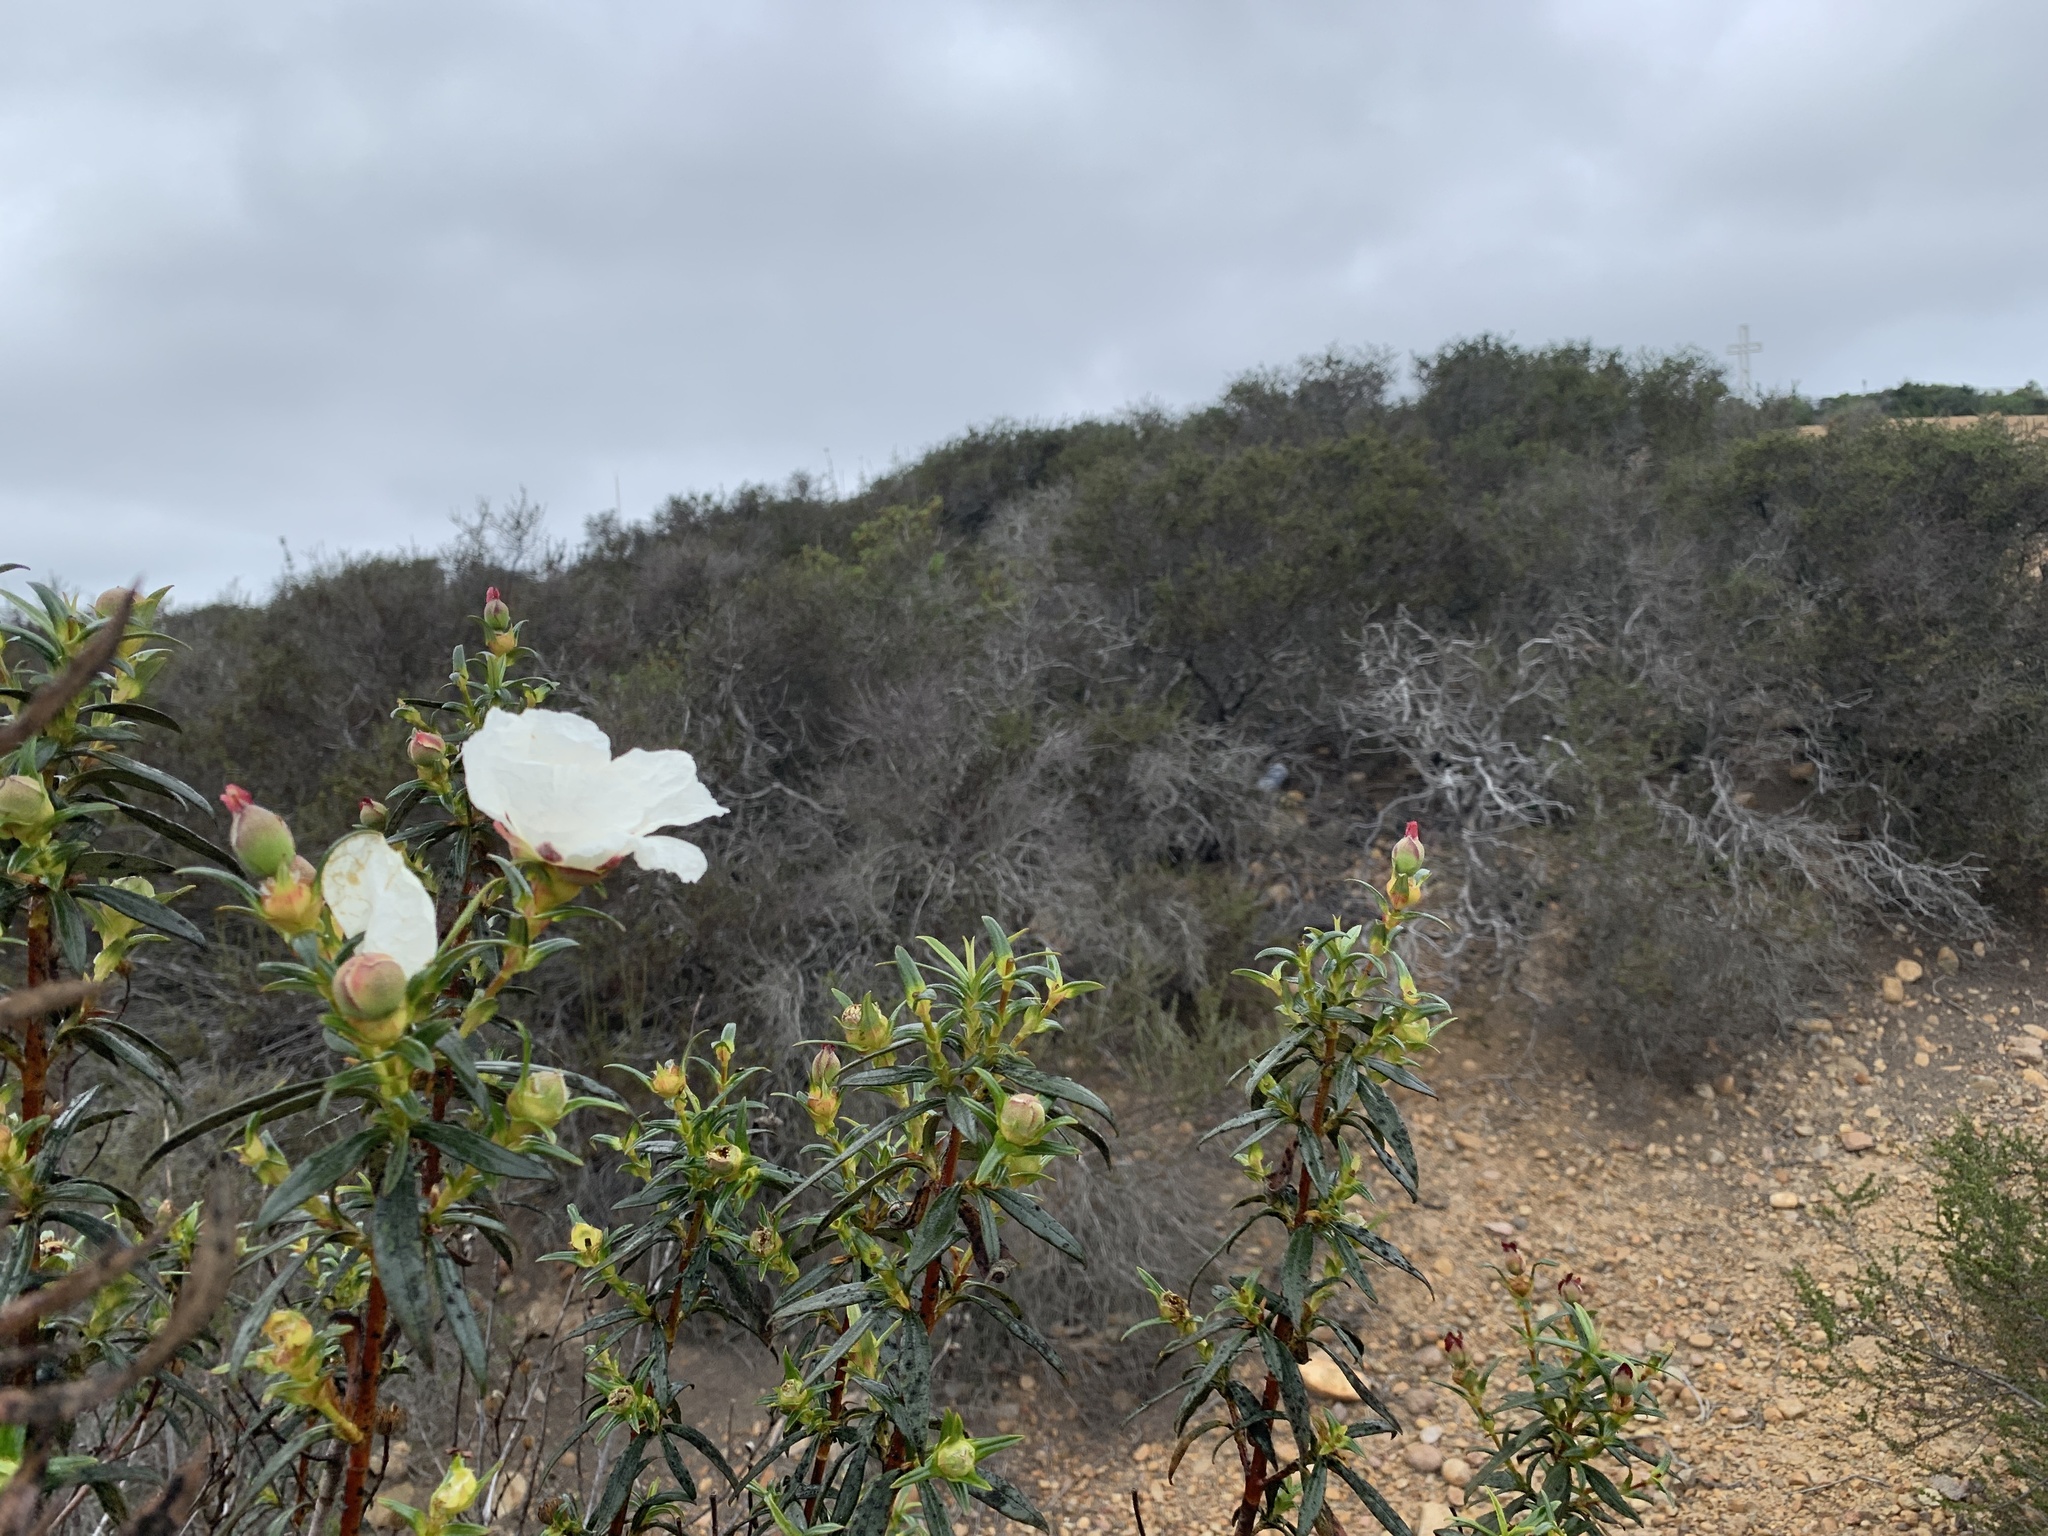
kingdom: Plantae
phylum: Tracheophyta
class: Magnoliopsida
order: Malvales
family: Cistaceae
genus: Cistus
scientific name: Cistus ladanifer
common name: Common gum cistus
